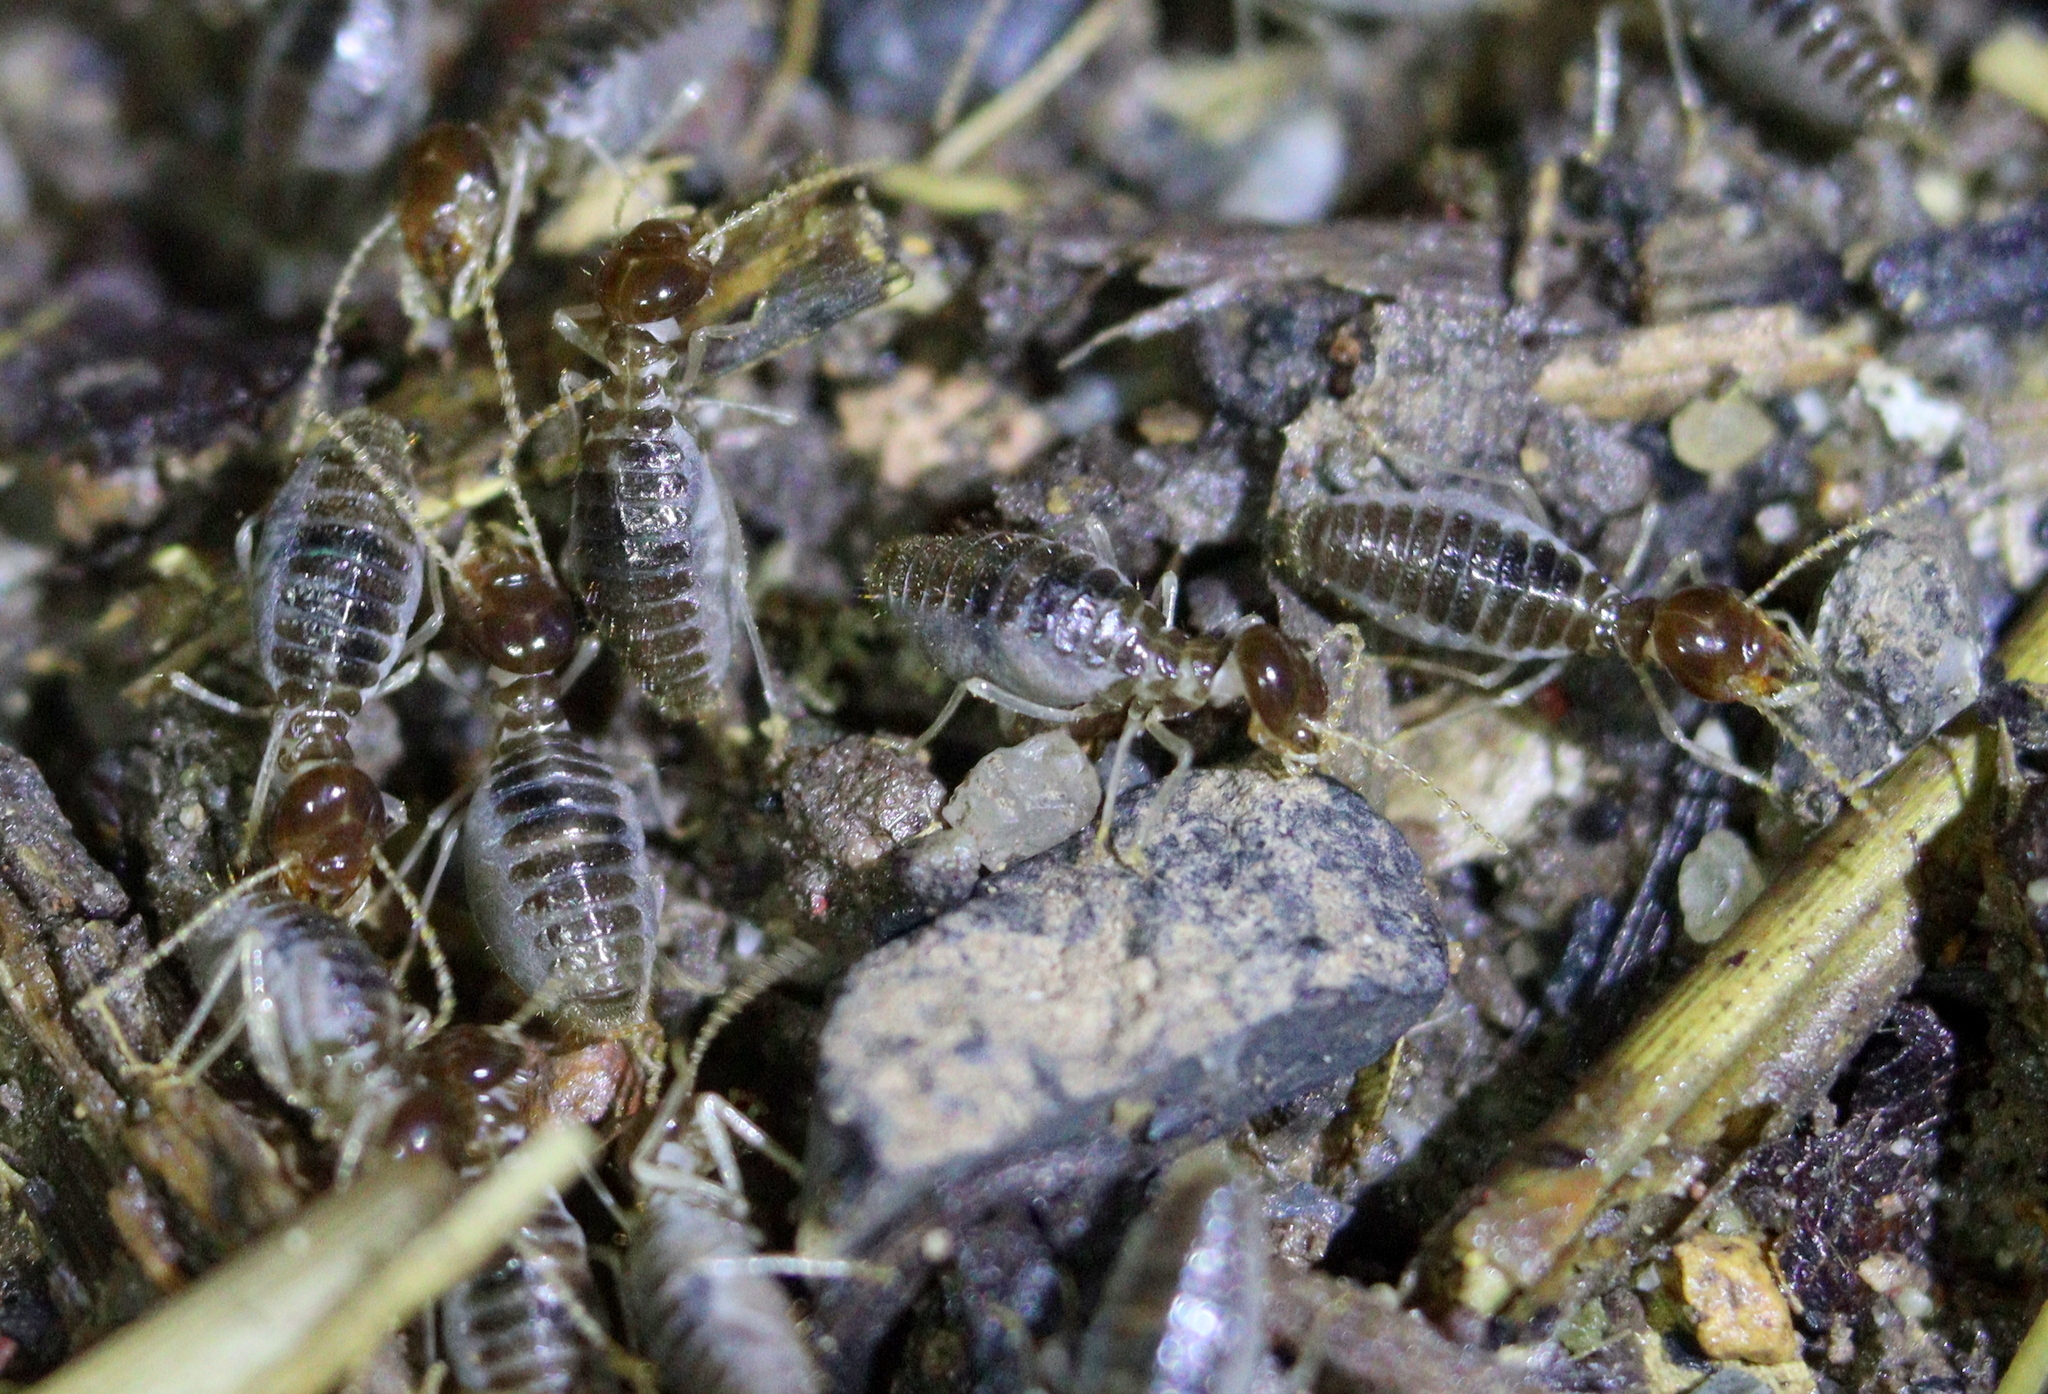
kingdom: Animalia
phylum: Arthropoda
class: Insecta
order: Blattodea
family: Termitidae
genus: Speculitermes
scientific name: Speculitermes macrodentatus
